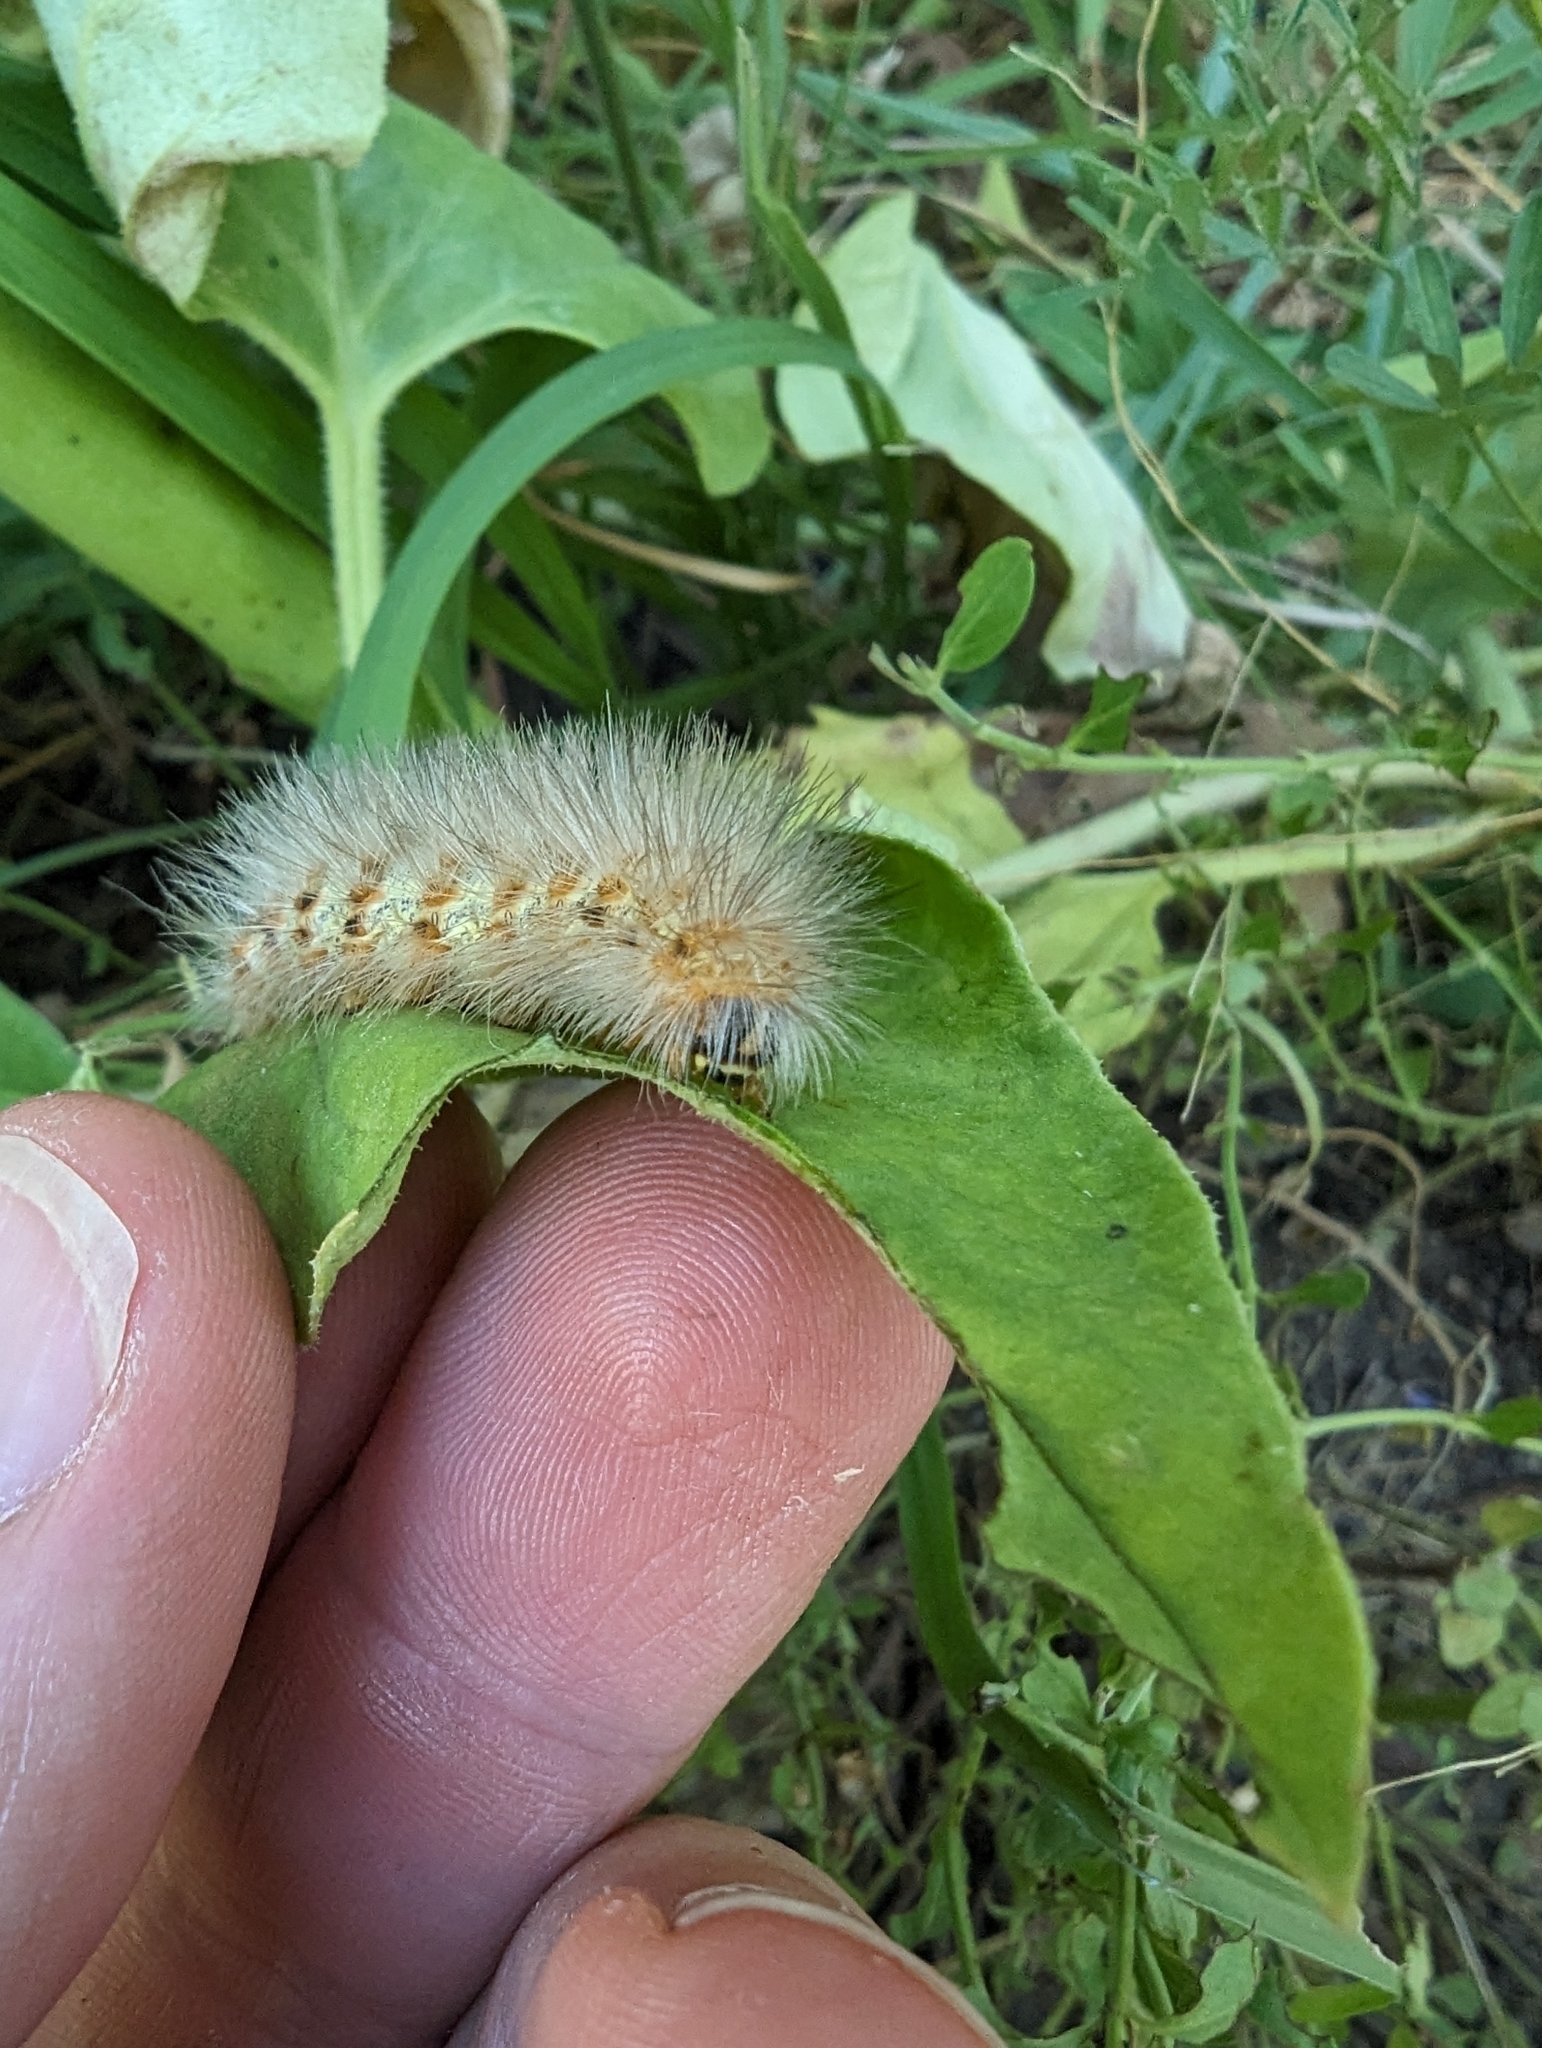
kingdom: Animalia
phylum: Arthropoda
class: Insecta
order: Lepidoptera
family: Erebidae
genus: Estigmene
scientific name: Estigmene acrea
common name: Salt marsh moth
